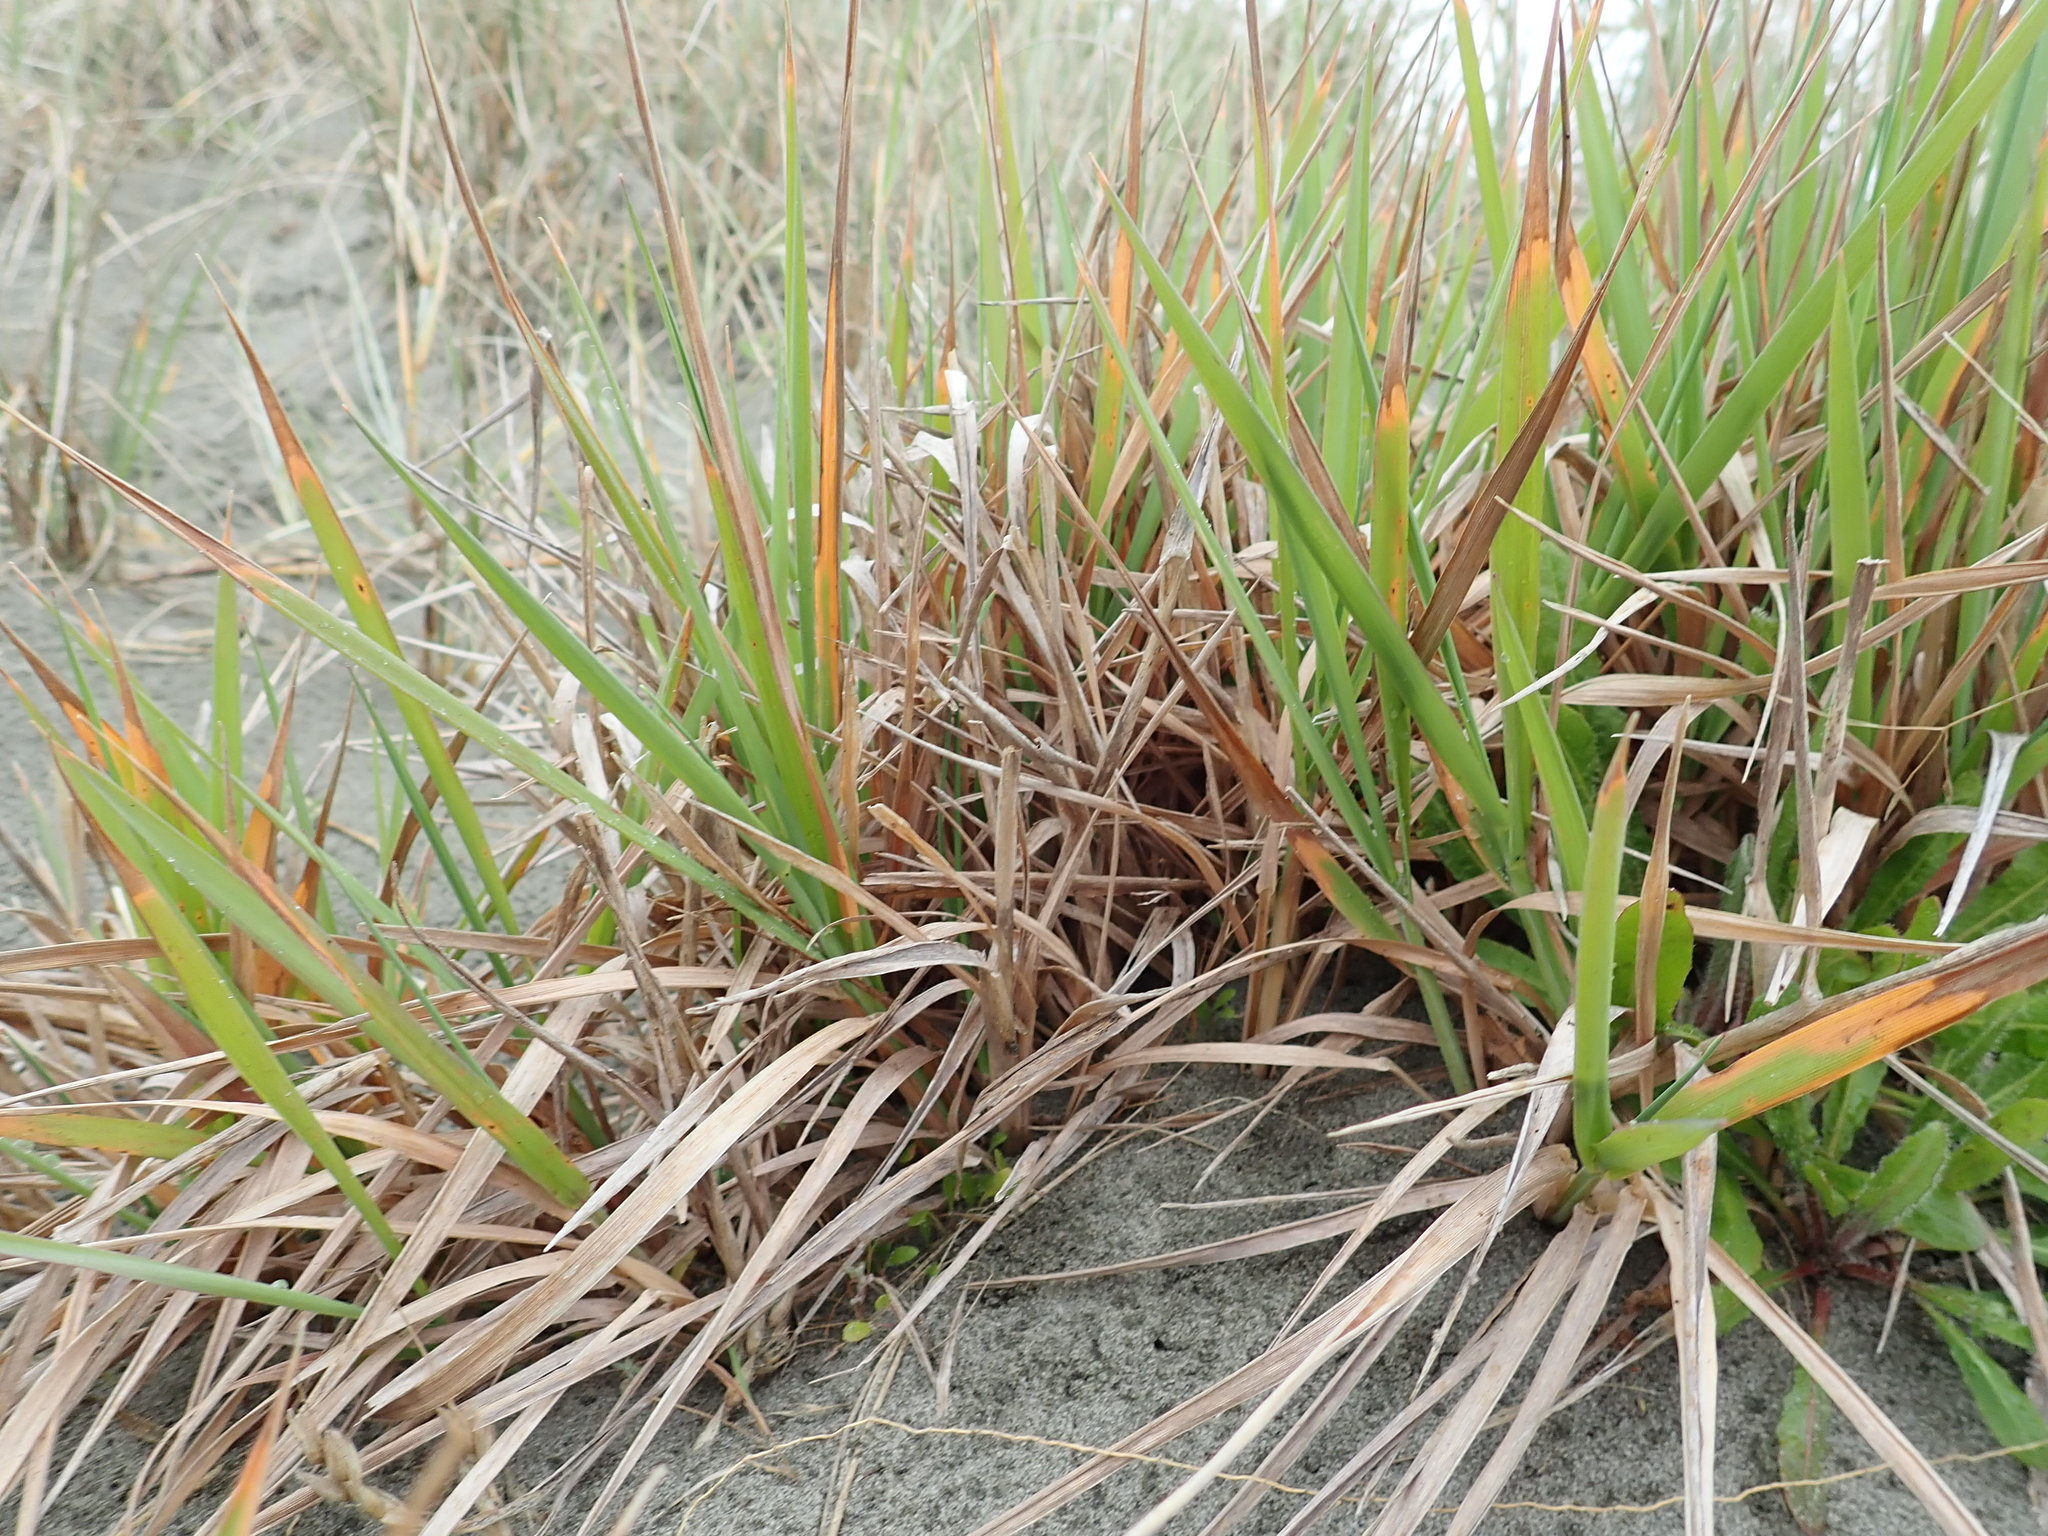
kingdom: Plantae
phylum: Tracheophyta
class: Liliopsida
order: Poales
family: Poaceae
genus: Lachnagrostis
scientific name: Lachnagrostis billardierei
